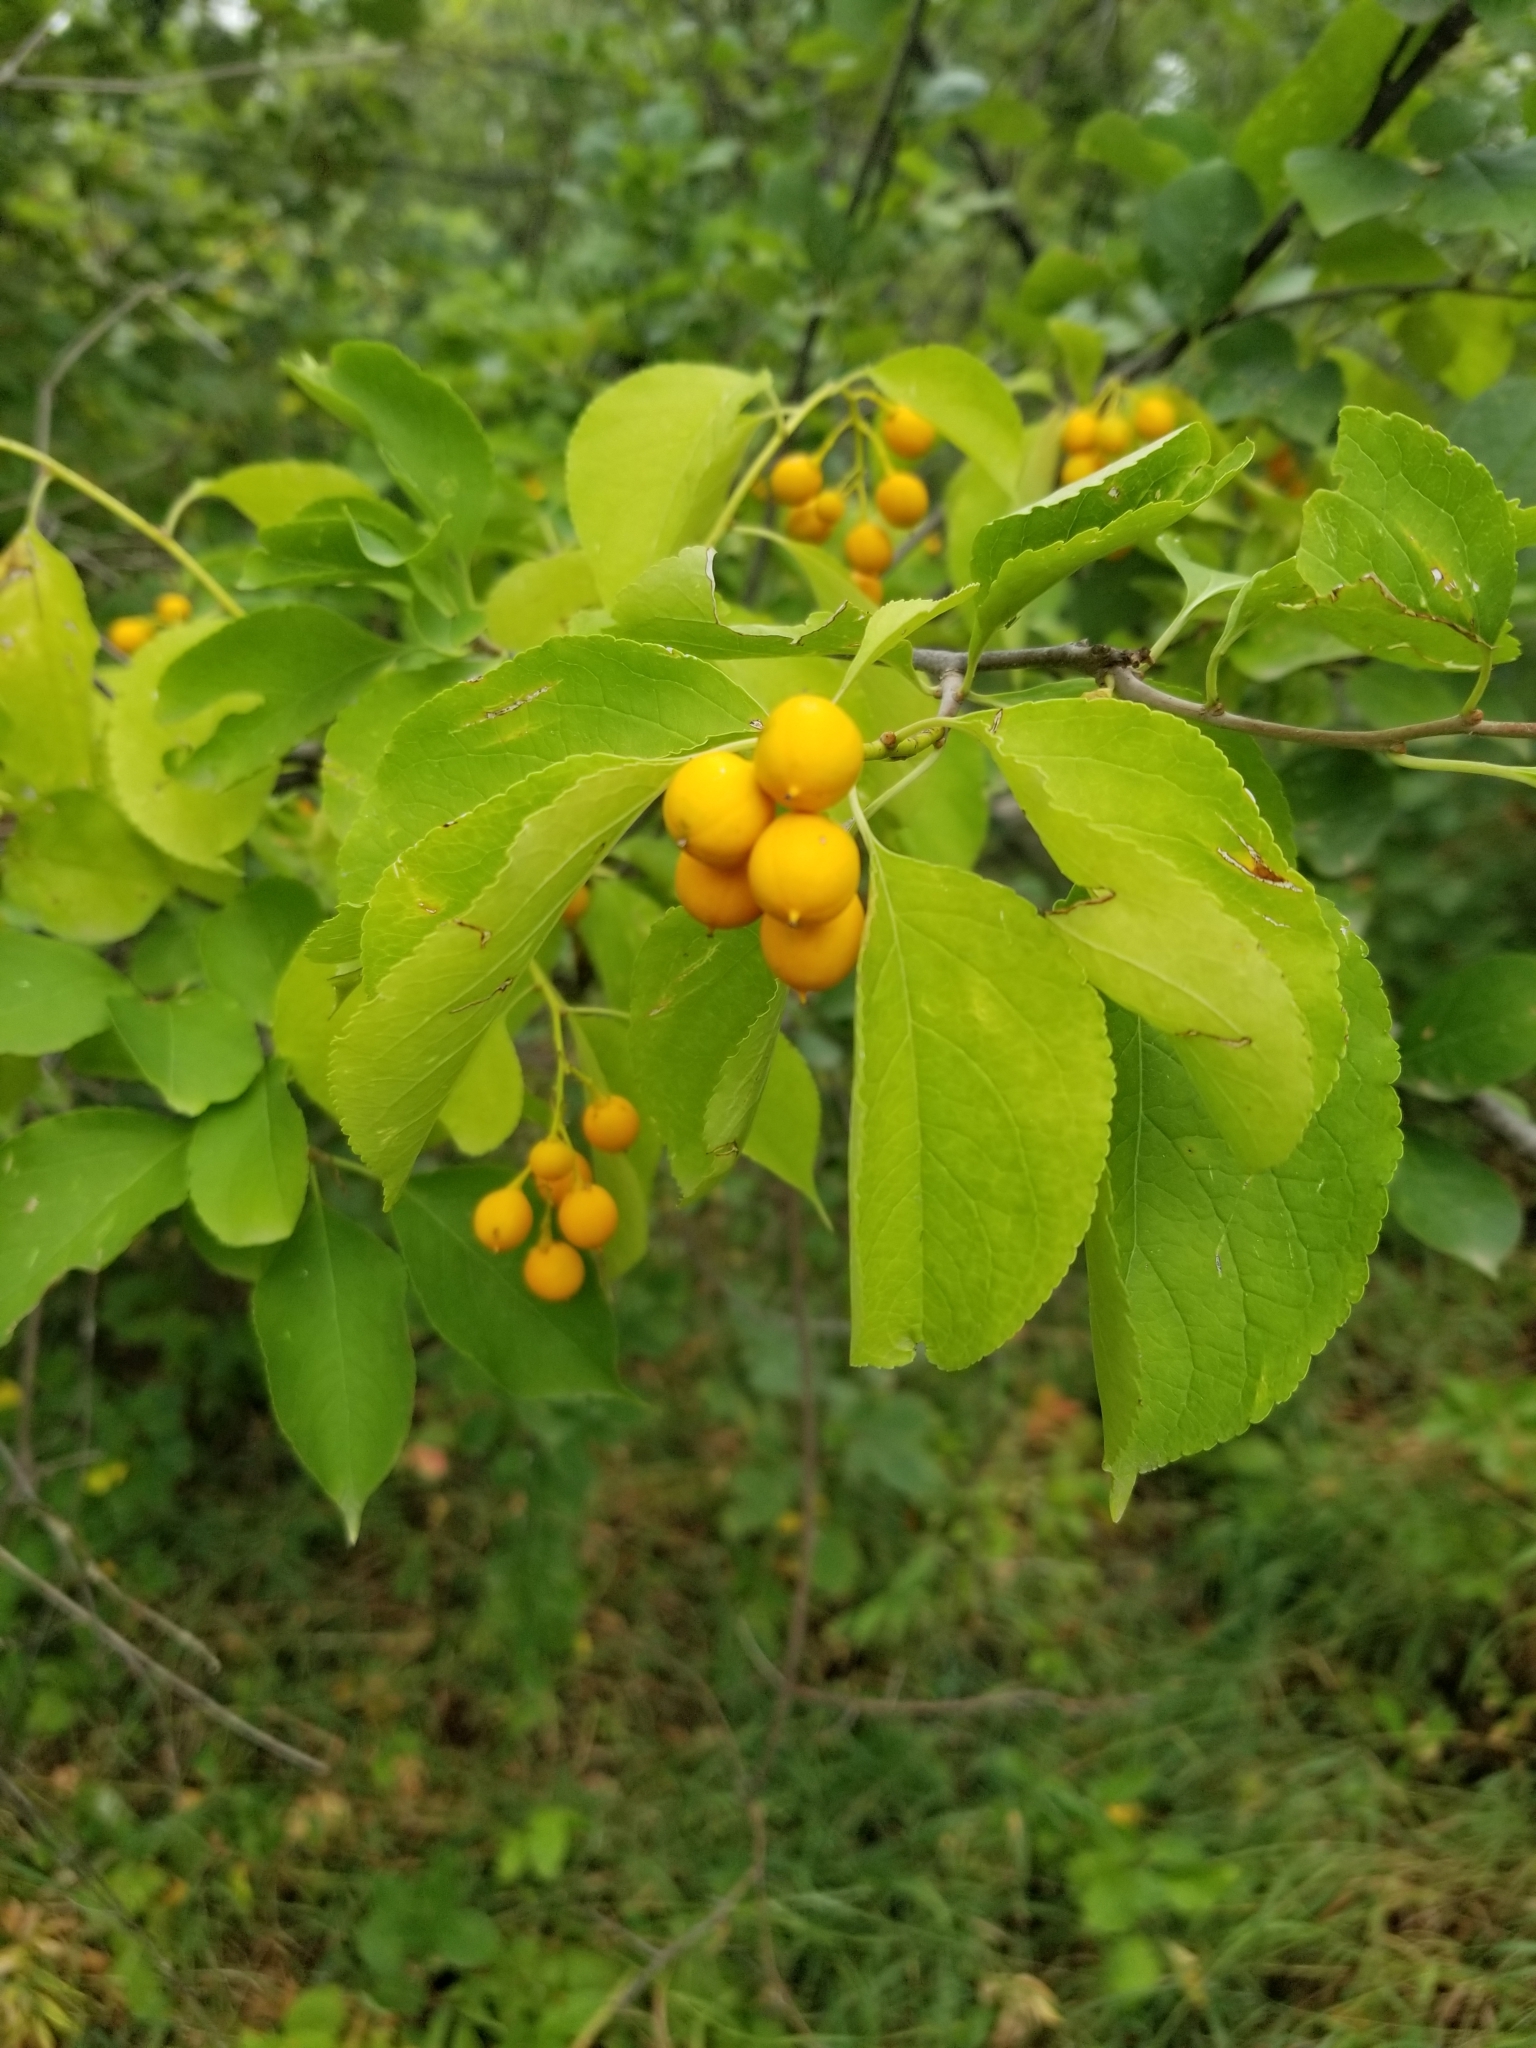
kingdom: Plantae
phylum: Tracheophyta
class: Magnoliopsida
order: Celastrales
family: Celastraceae
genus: Celastrus
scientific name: Celastrus scandens
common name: American bittersweet
